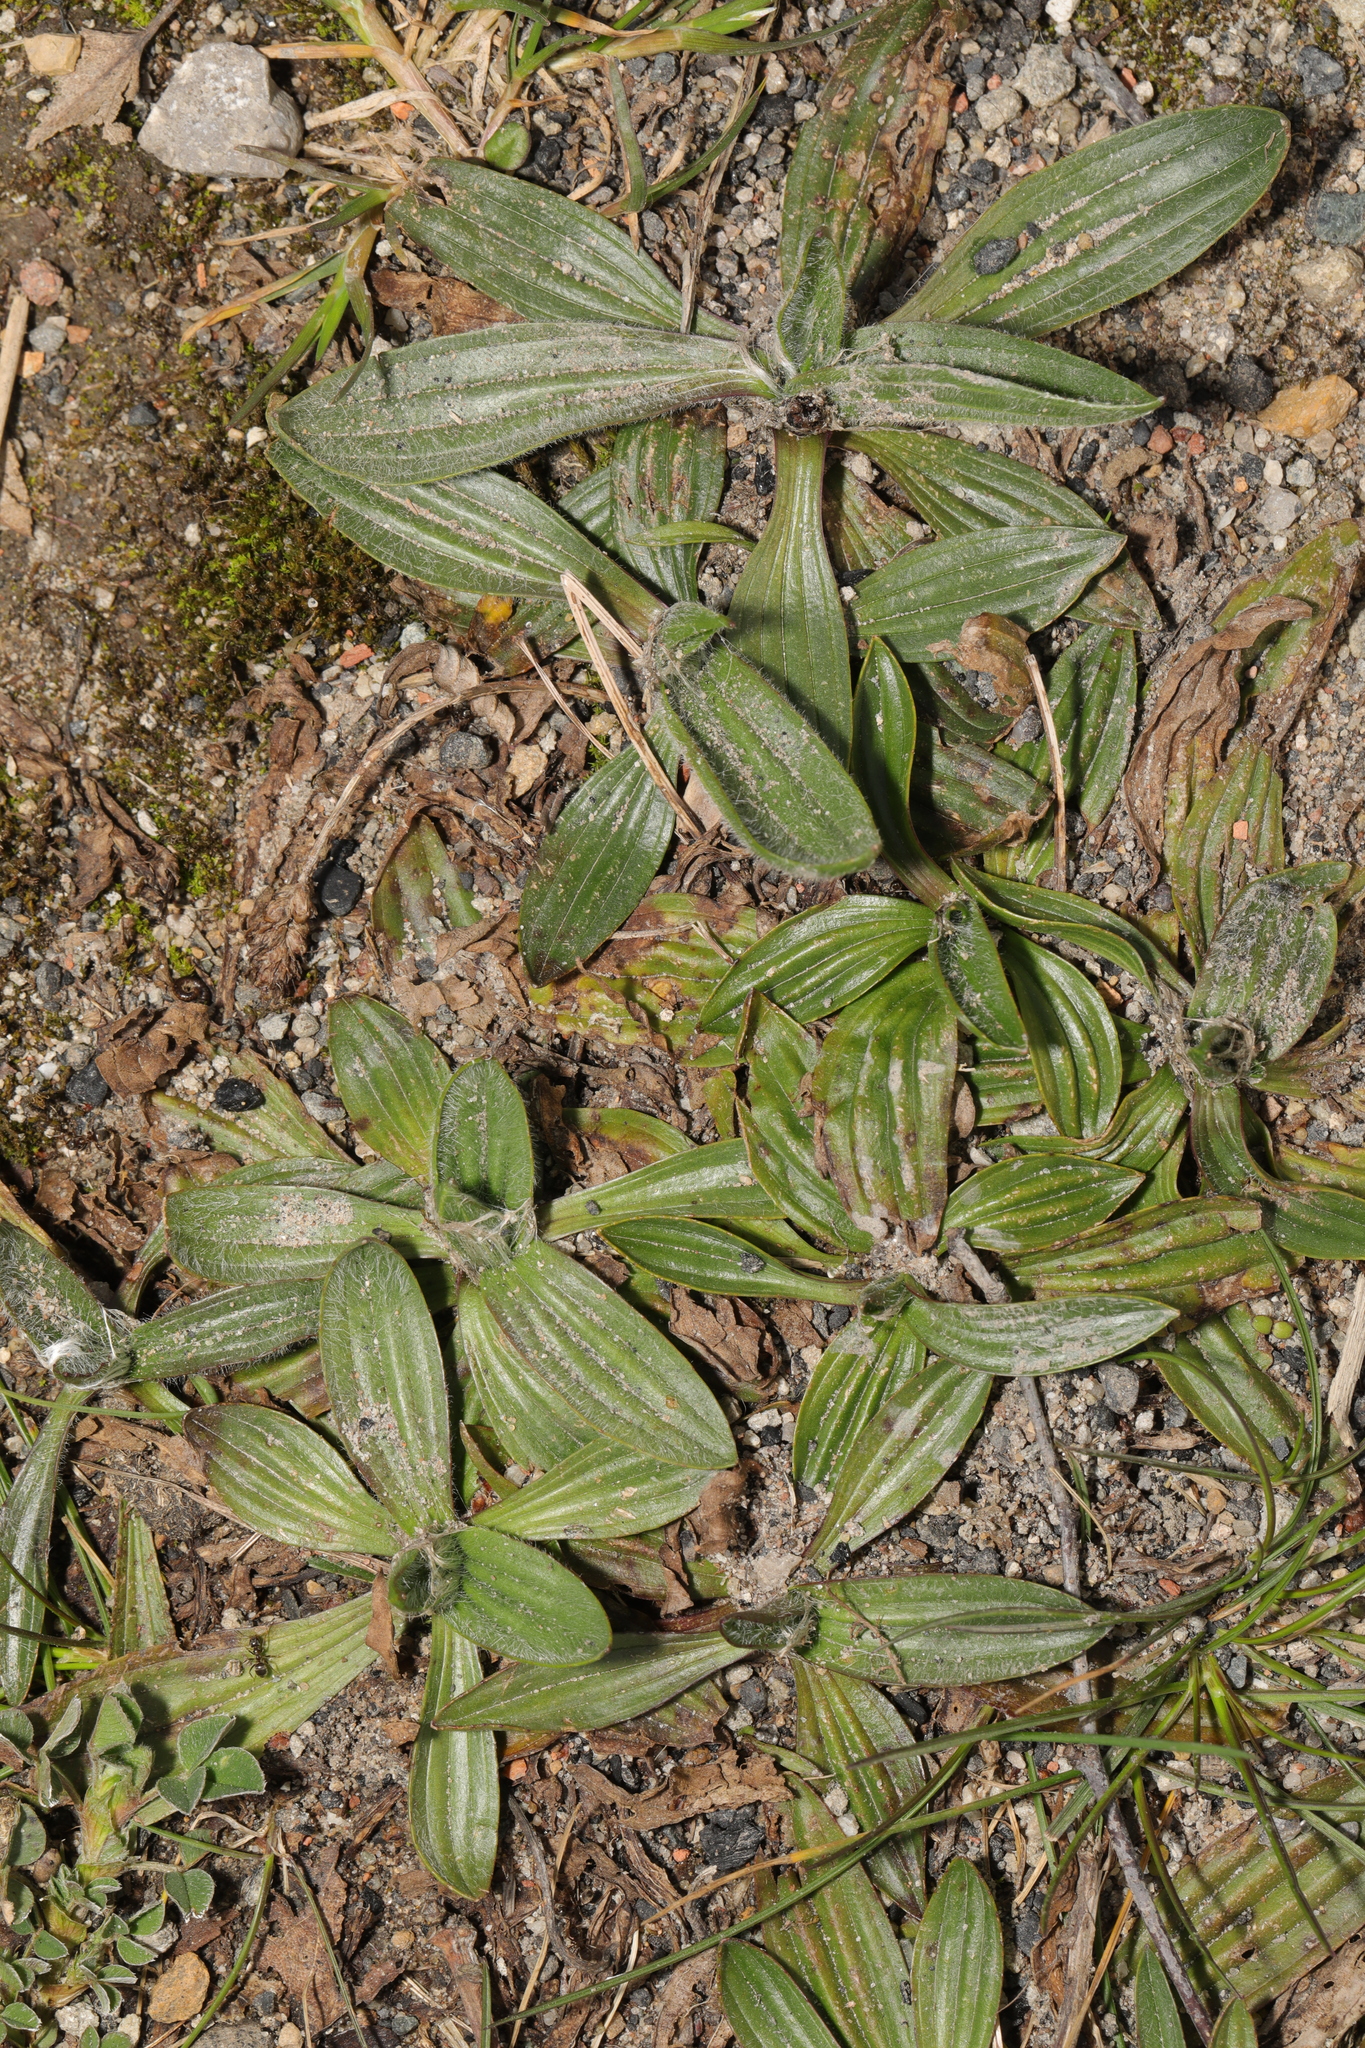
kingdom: Plantae
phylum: Tracheophyta
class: Magnoliopsida
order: Lamiales
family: Plantaginaceae
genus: Plantago
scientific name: Plantago lanceolata
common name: Ribwort plantain
